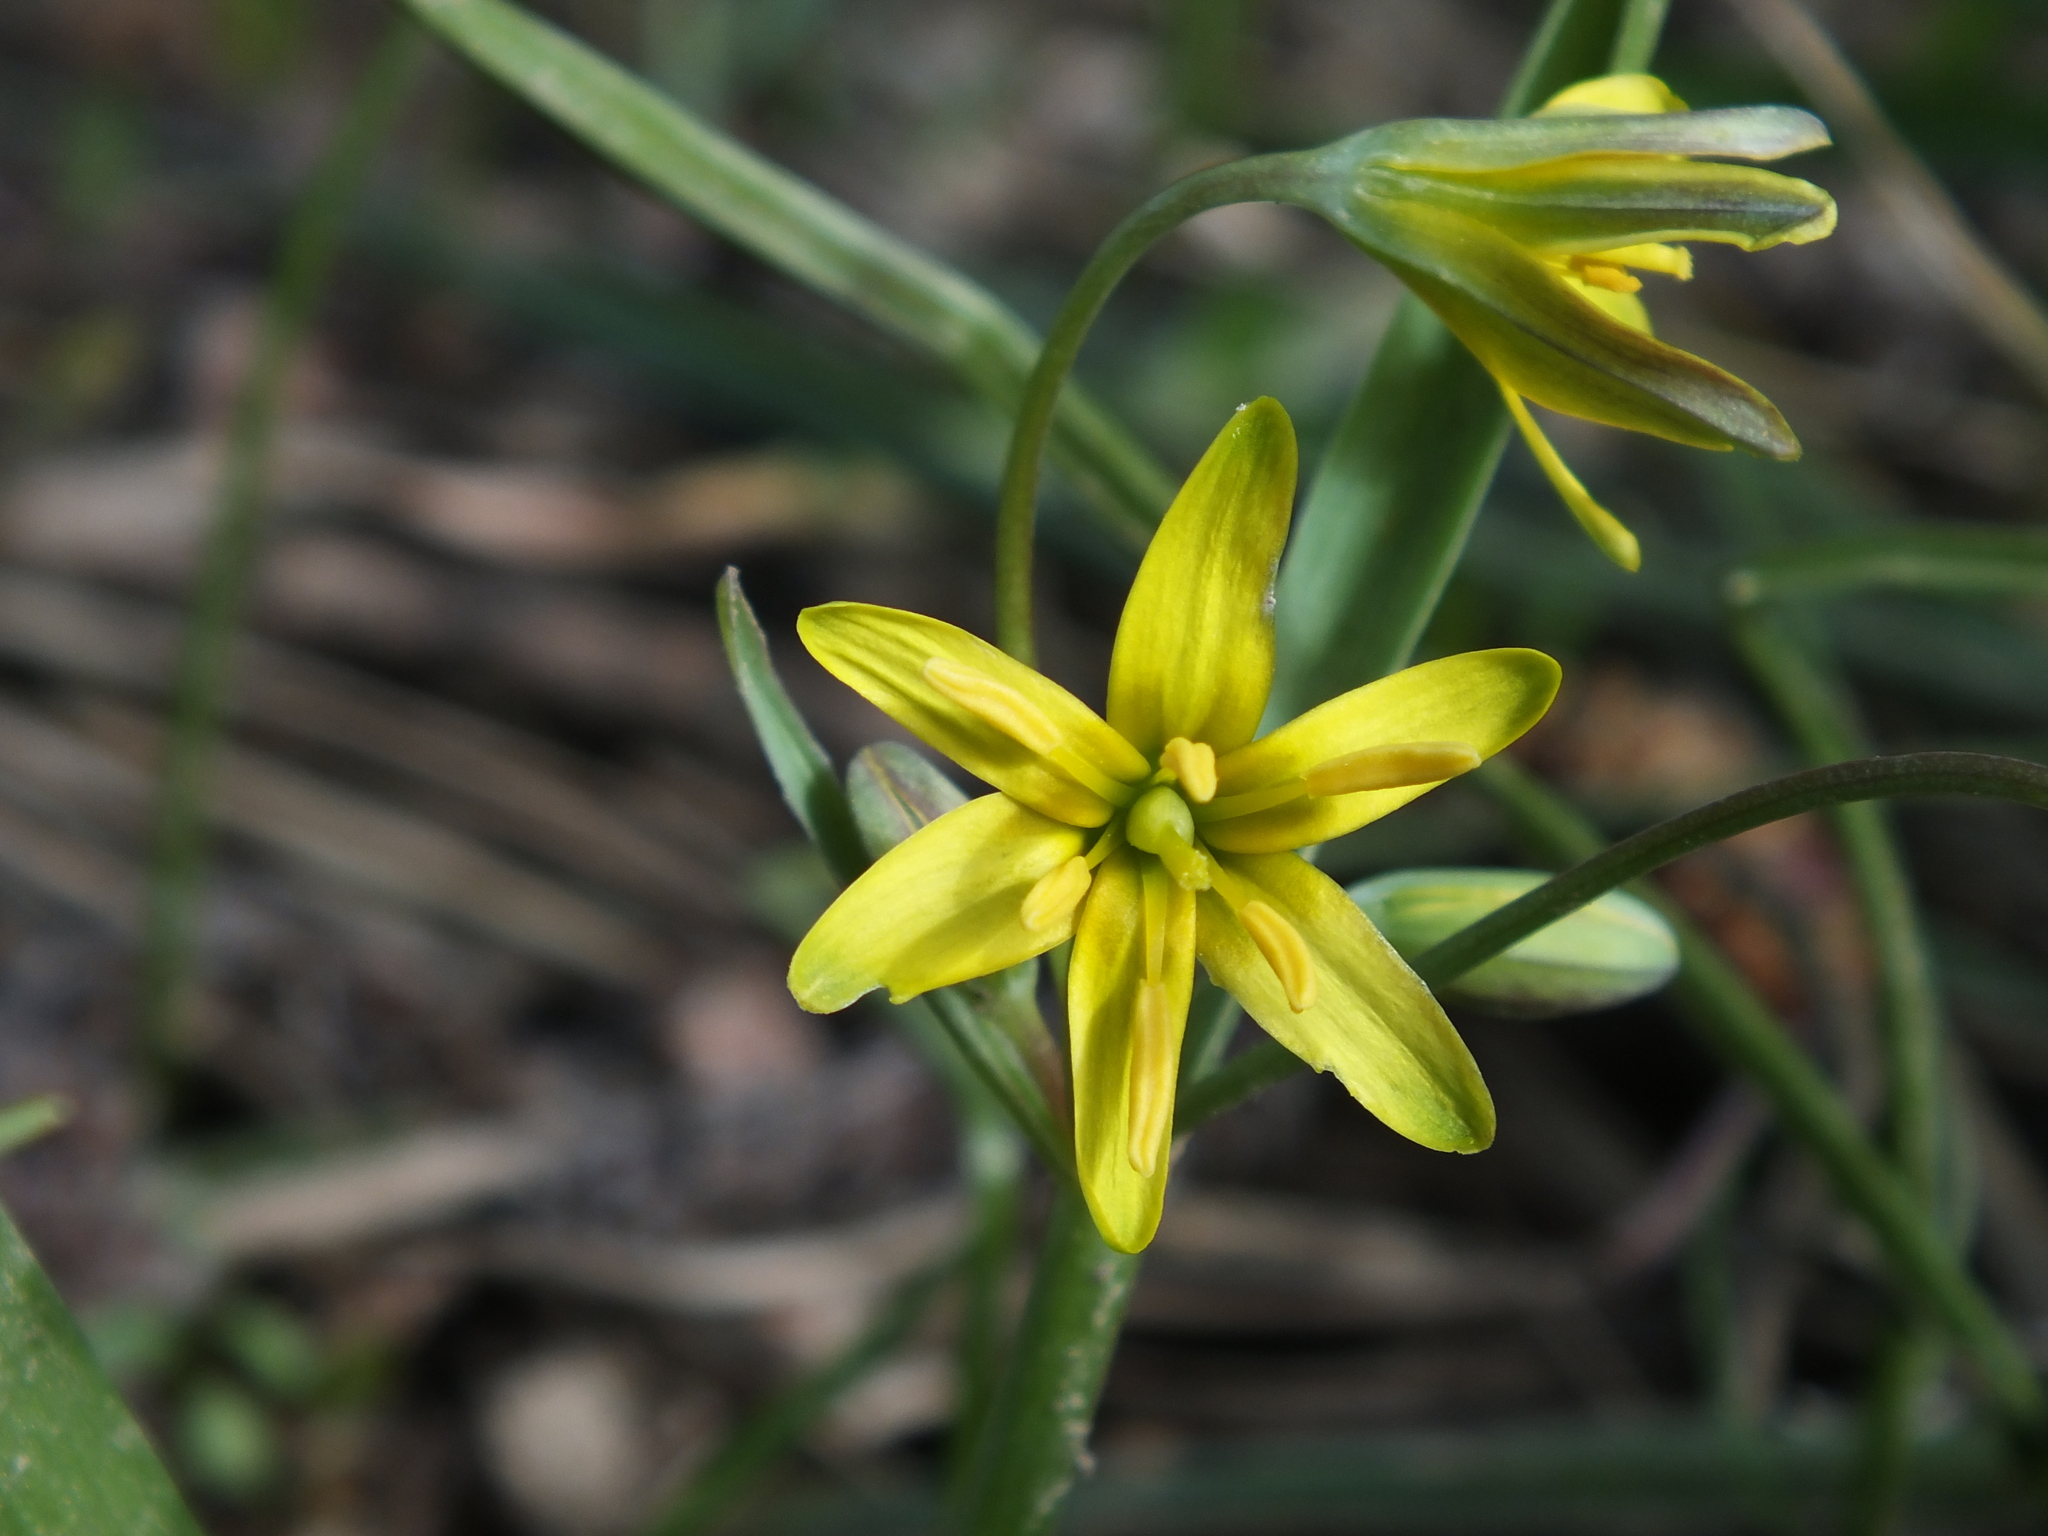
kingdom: Plantae
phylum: Tracheophyta
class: Liliopsida
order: Liliales
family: Liliaceae
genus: Gagea
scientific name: Gagea lutea
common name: Yellow star-of-bethlehem
